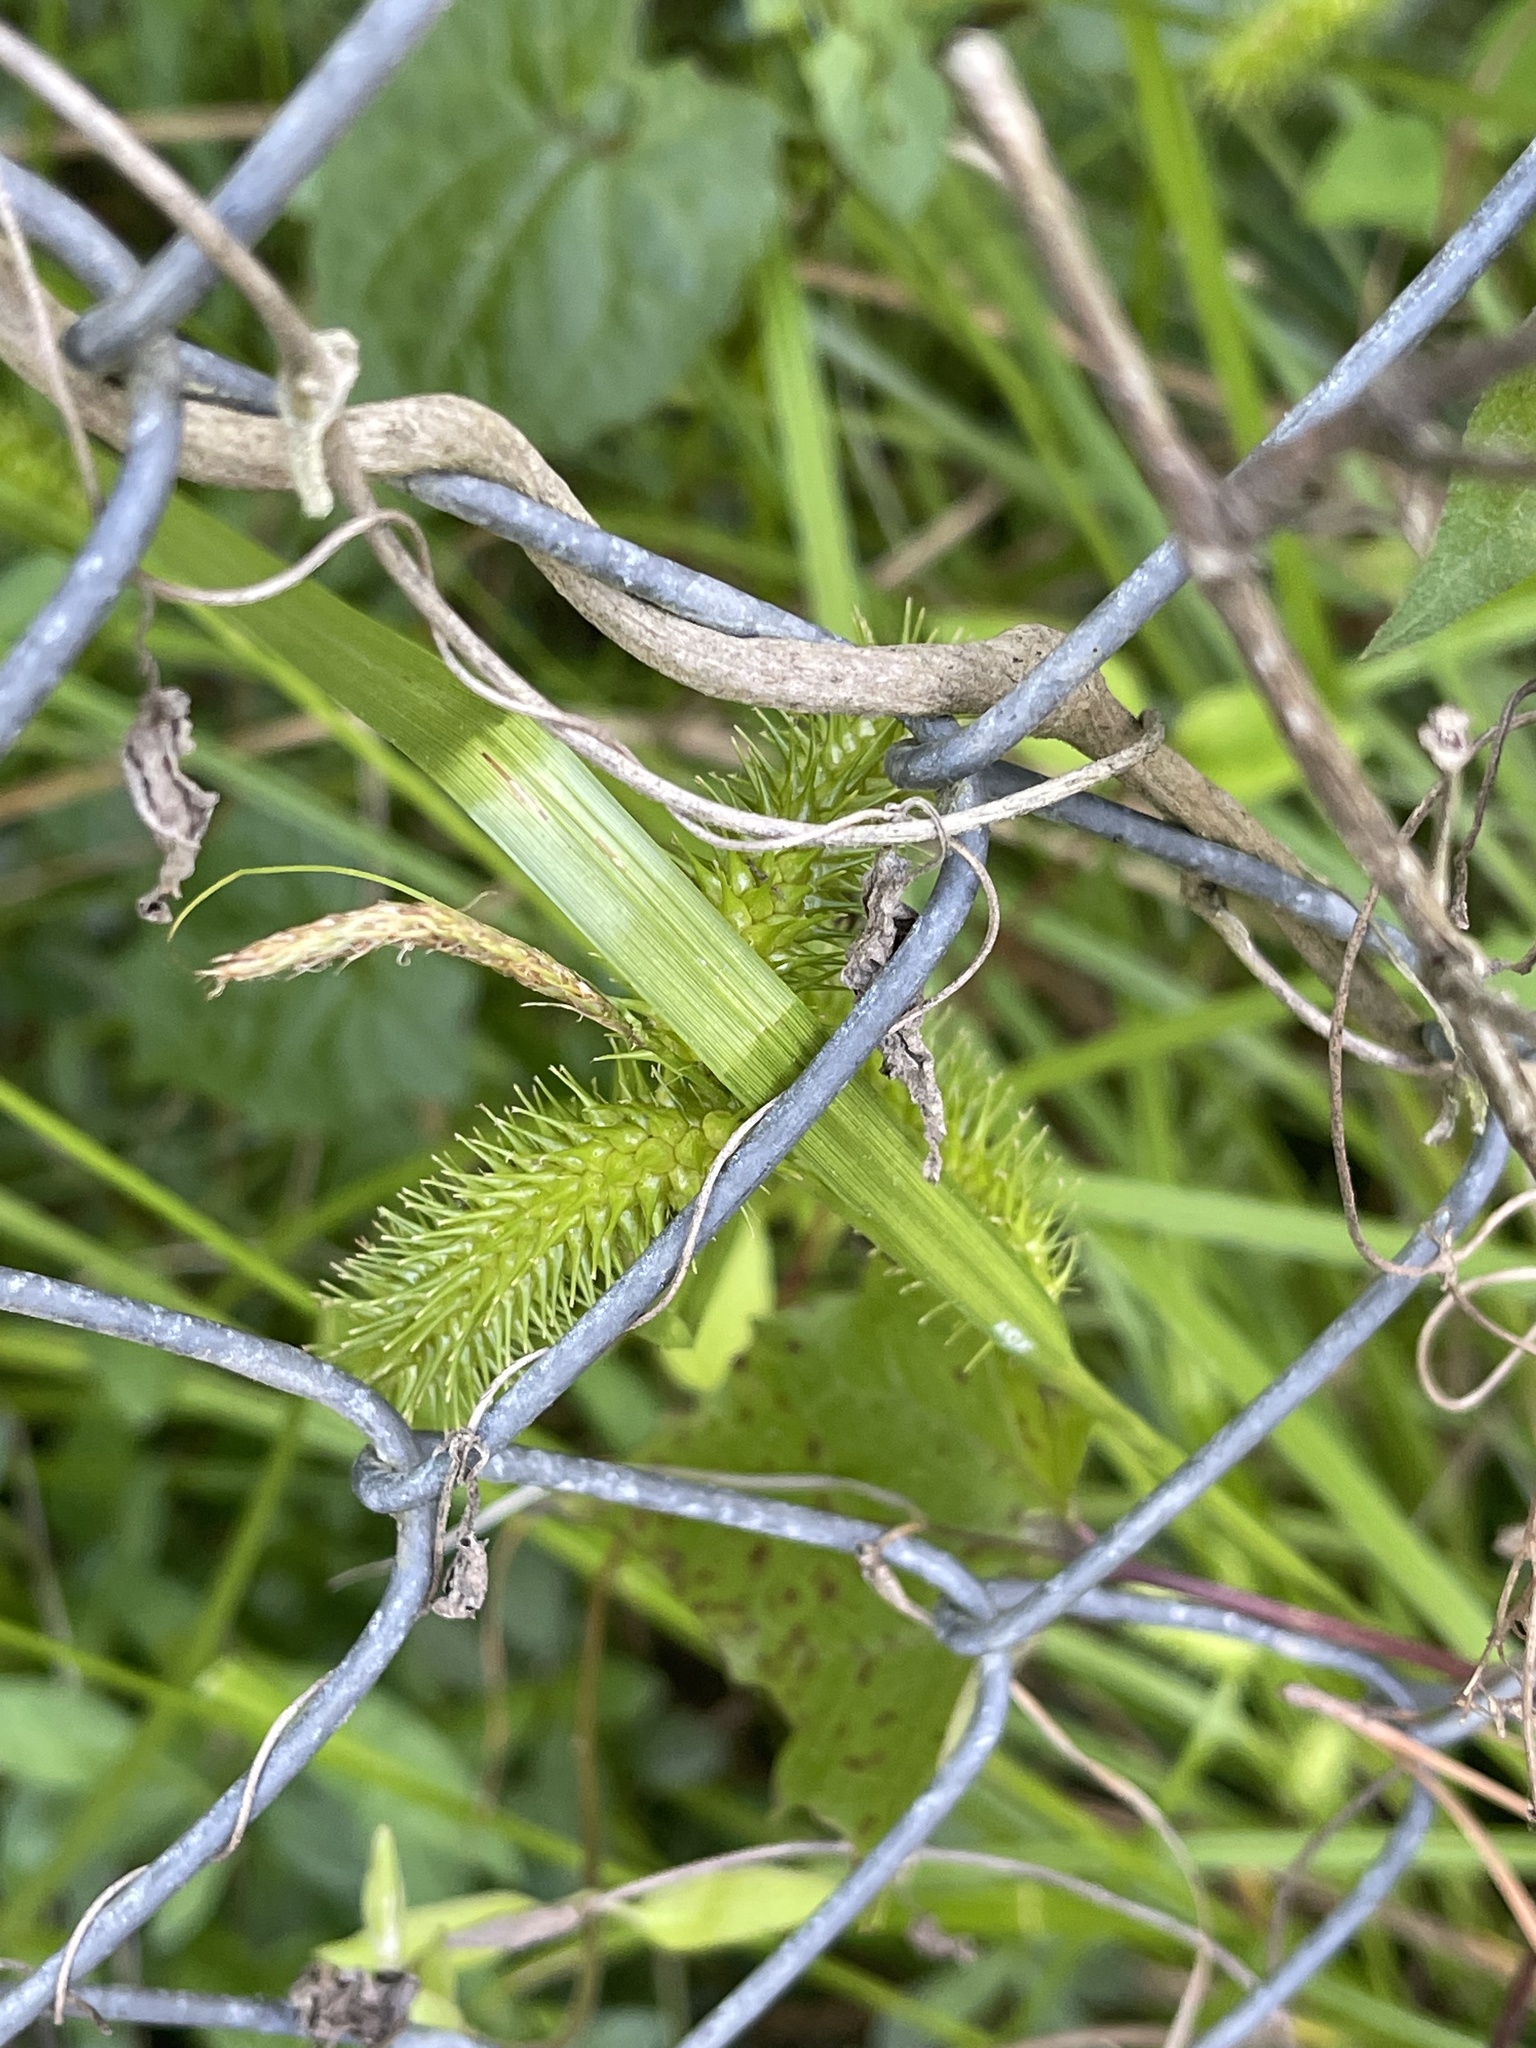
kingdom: Plantae
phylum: Tracheophyta
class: Liliopsida
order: Poales
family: Cyperaceae
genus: Carex
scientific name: Carex lurida
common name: Sallow sedge
